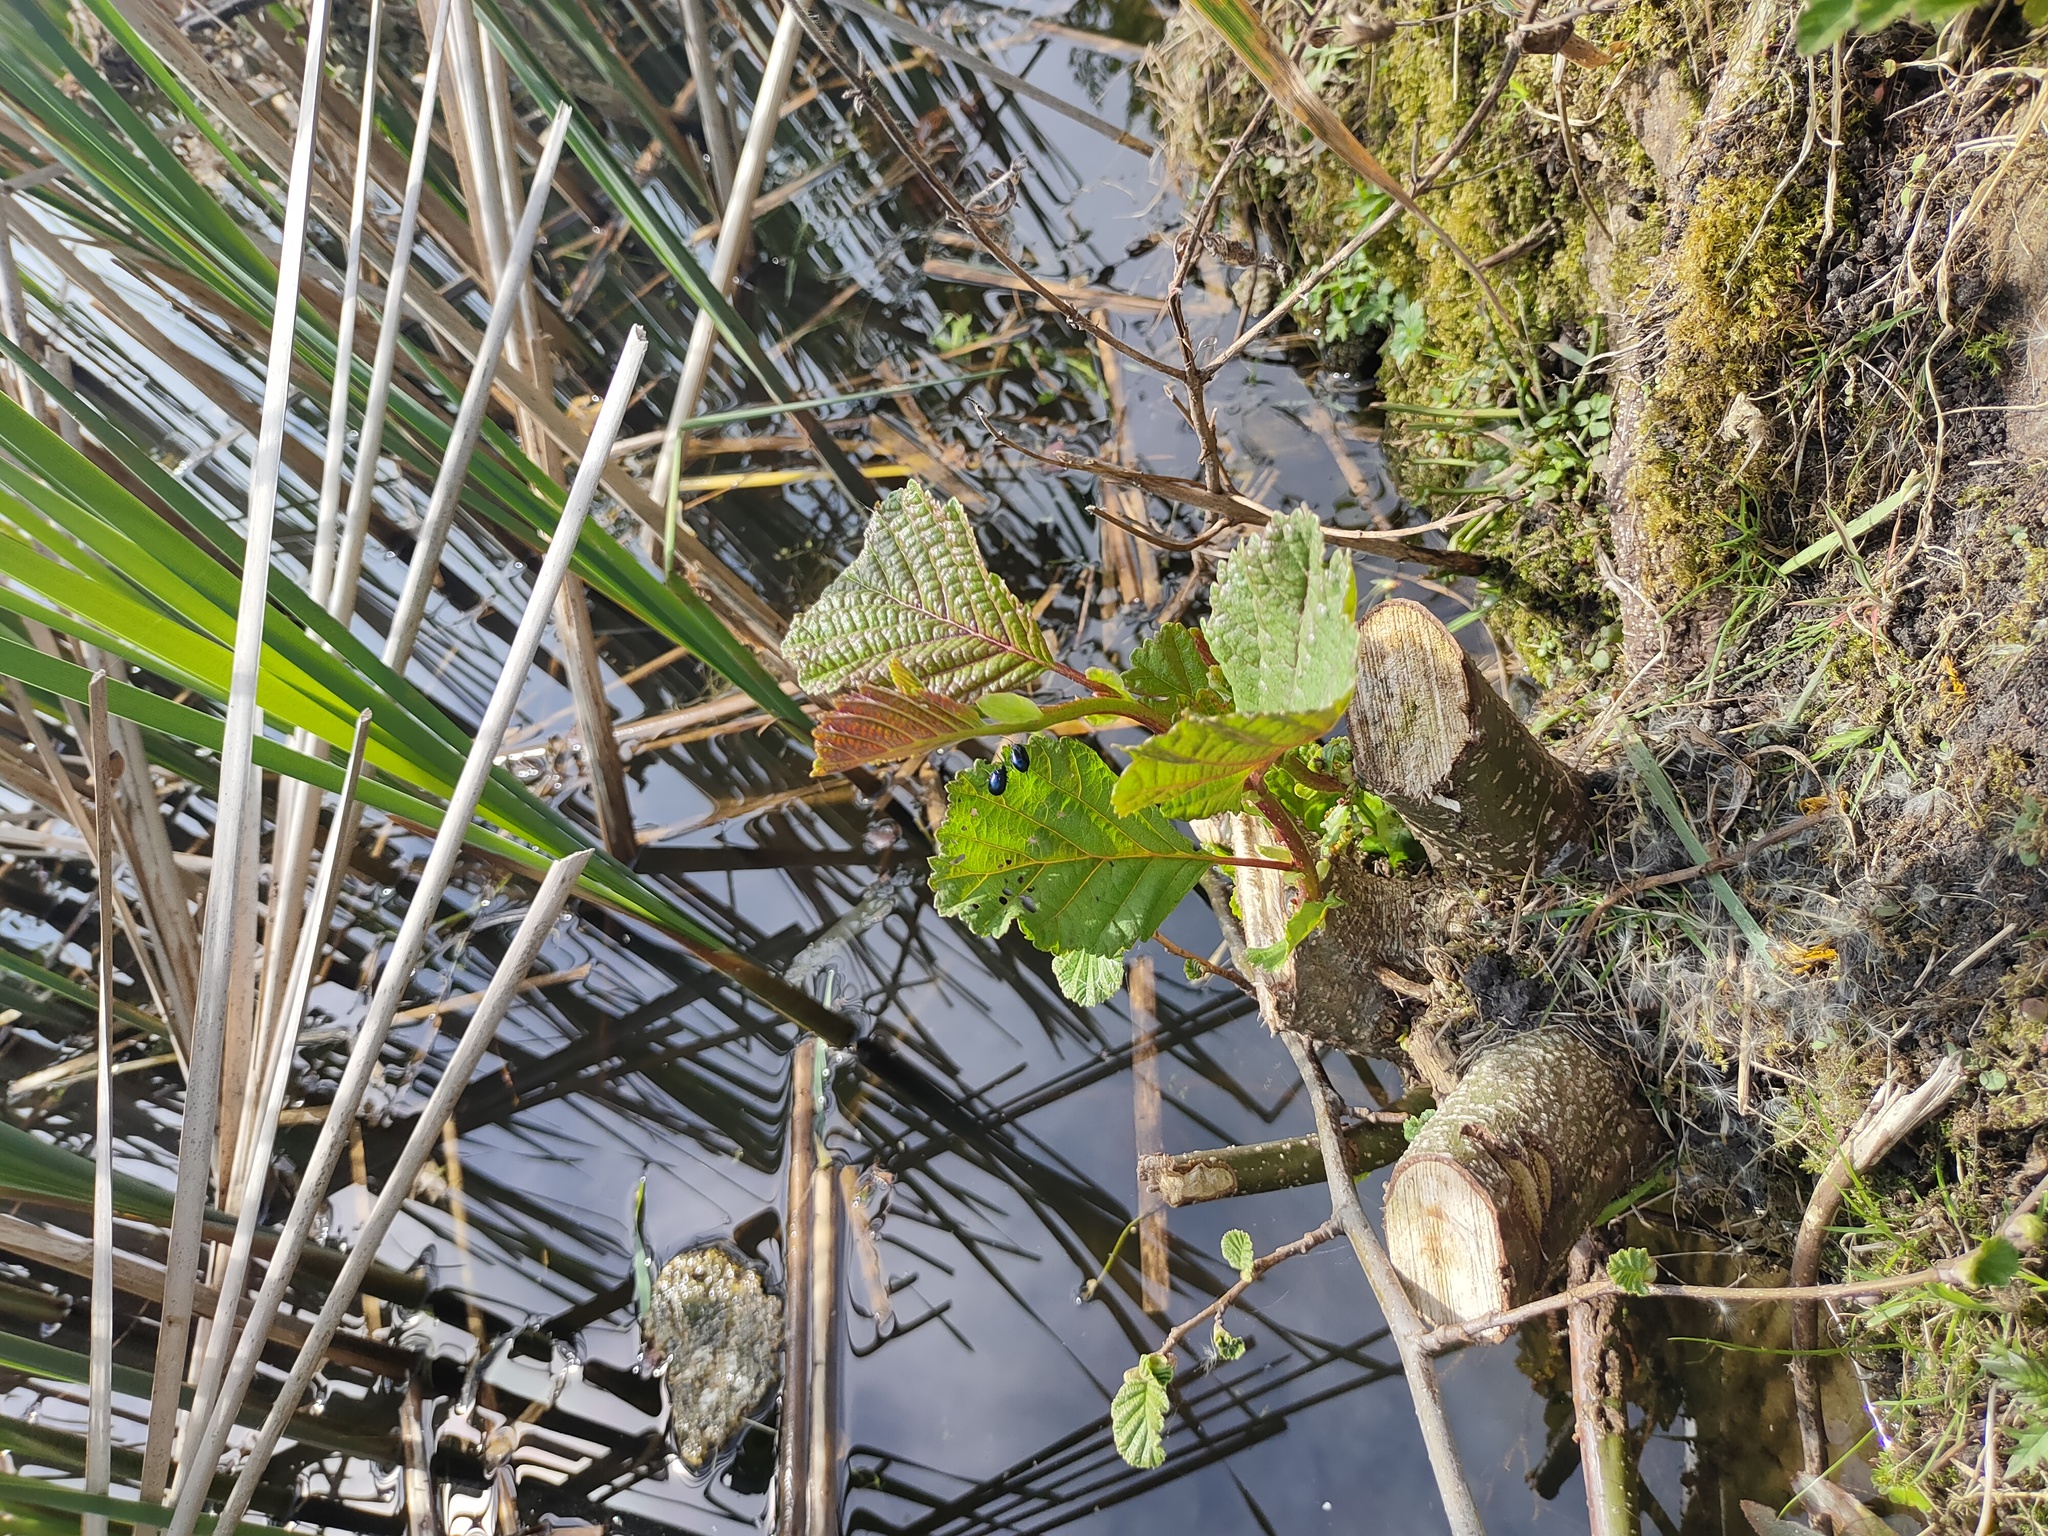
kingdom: Plantae
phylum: Tracheophyta
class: Magnoliopsida
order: Fagales
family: Betulaceae
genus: Alnus
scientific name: Alnus glutinosa
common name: Black alder
